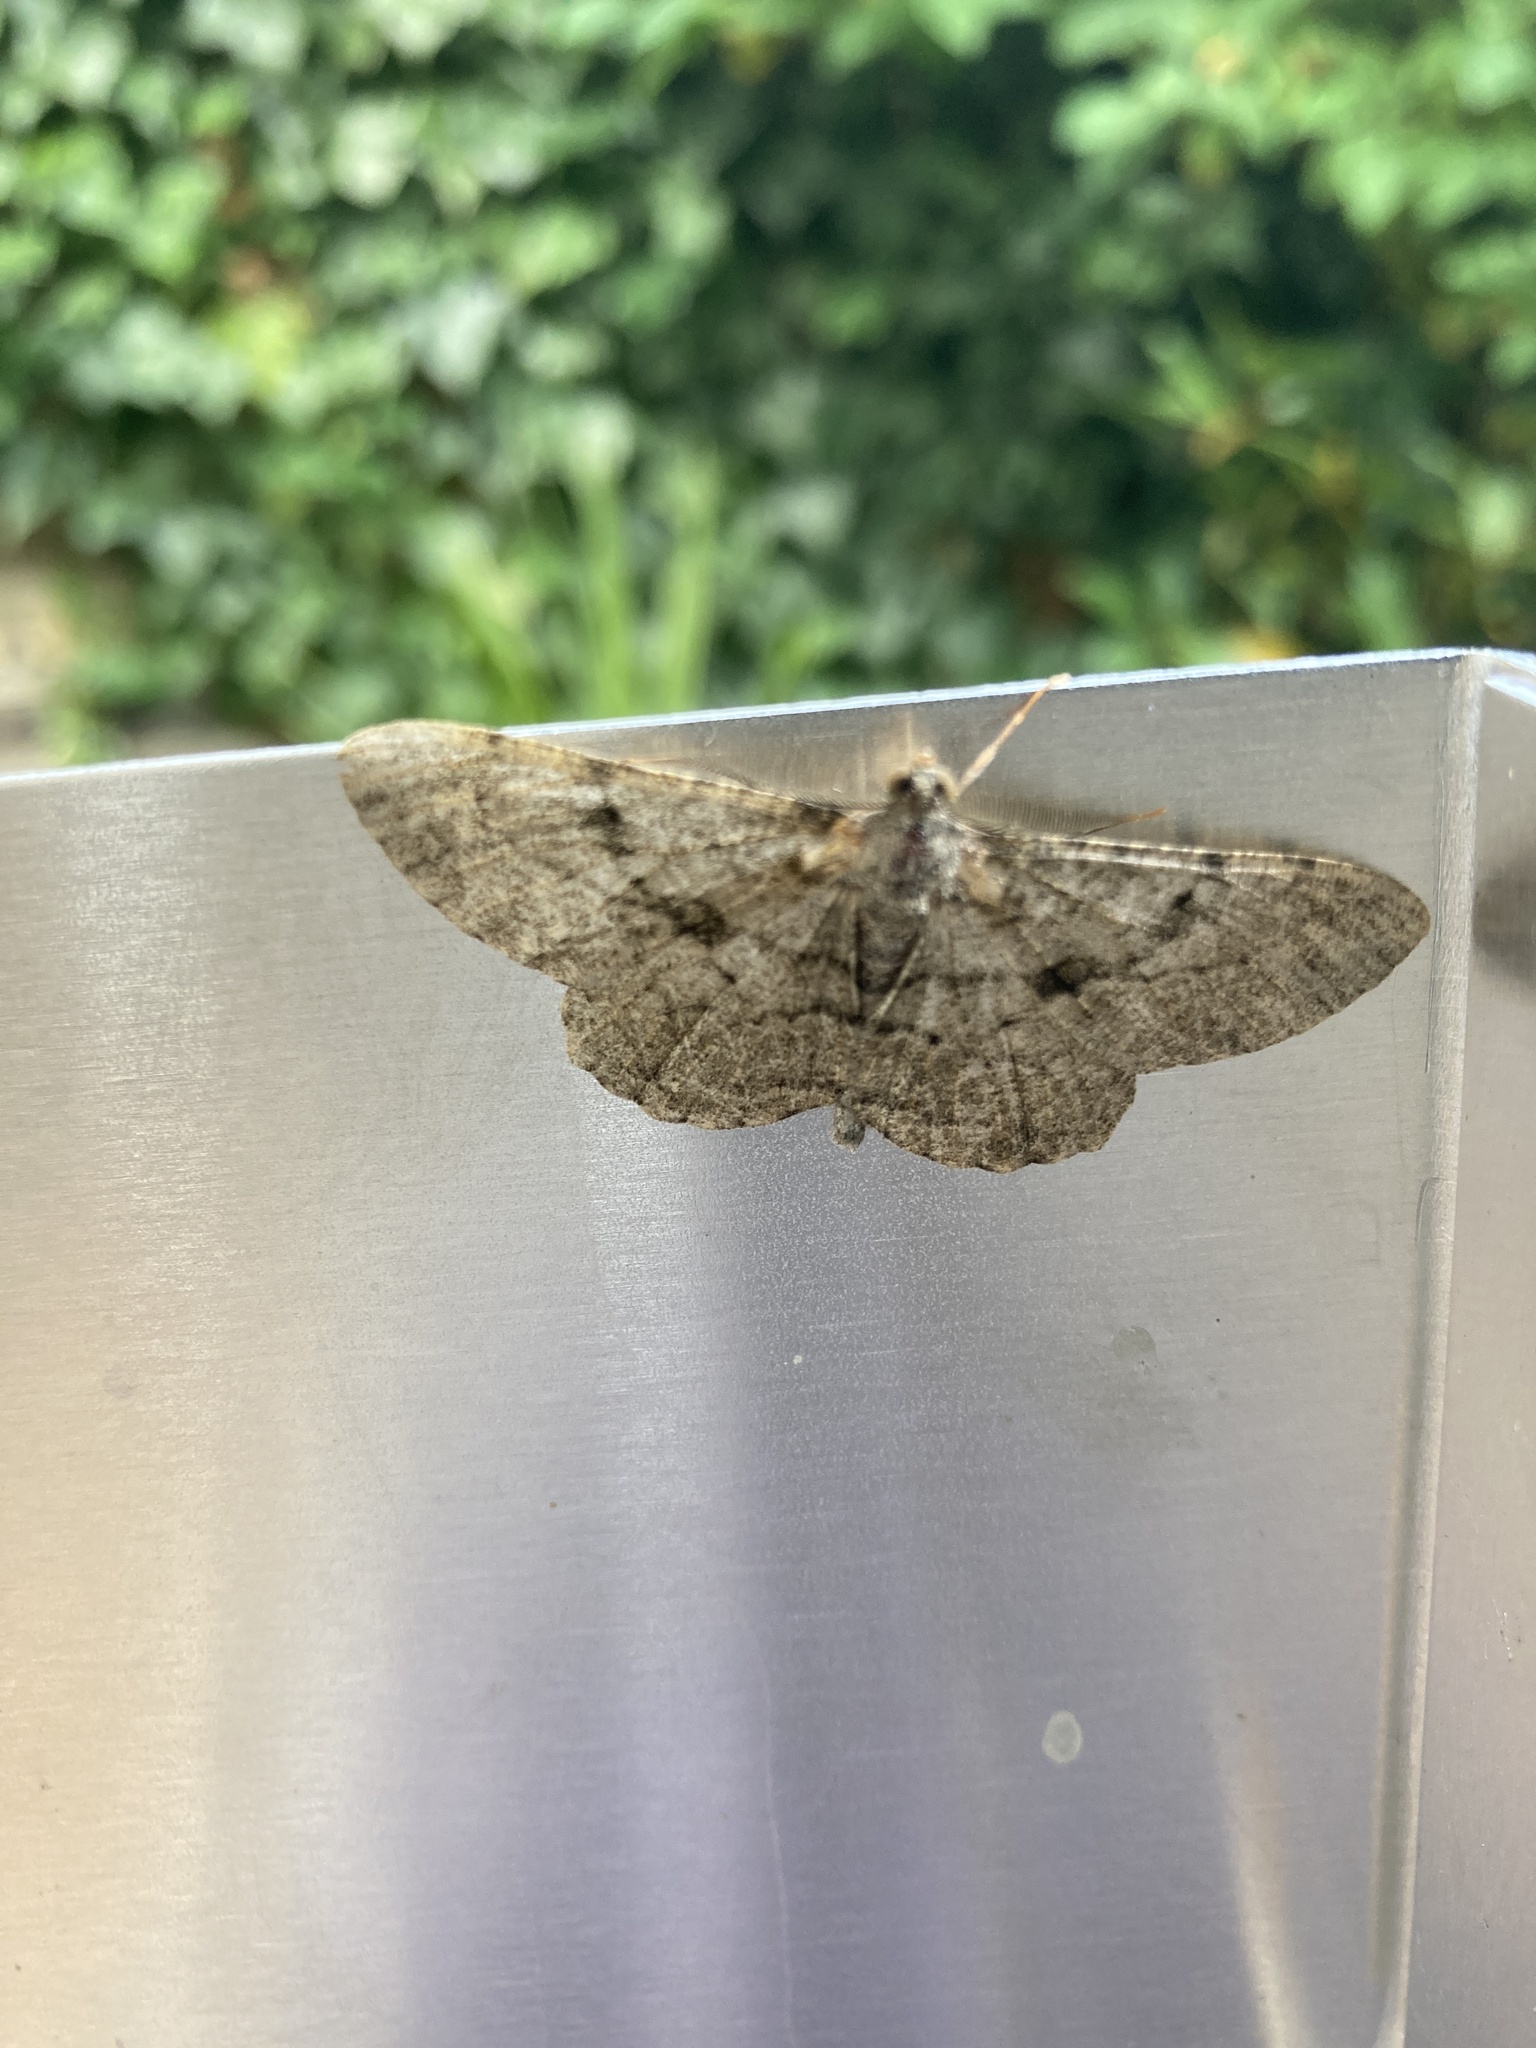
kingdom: Animalia
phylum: Arthropoda
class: Insecta
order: Lepidoptera
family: Geometridae
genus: Peribatodes
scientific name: Peribatodes rhomboidaria
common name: Willow beauty
